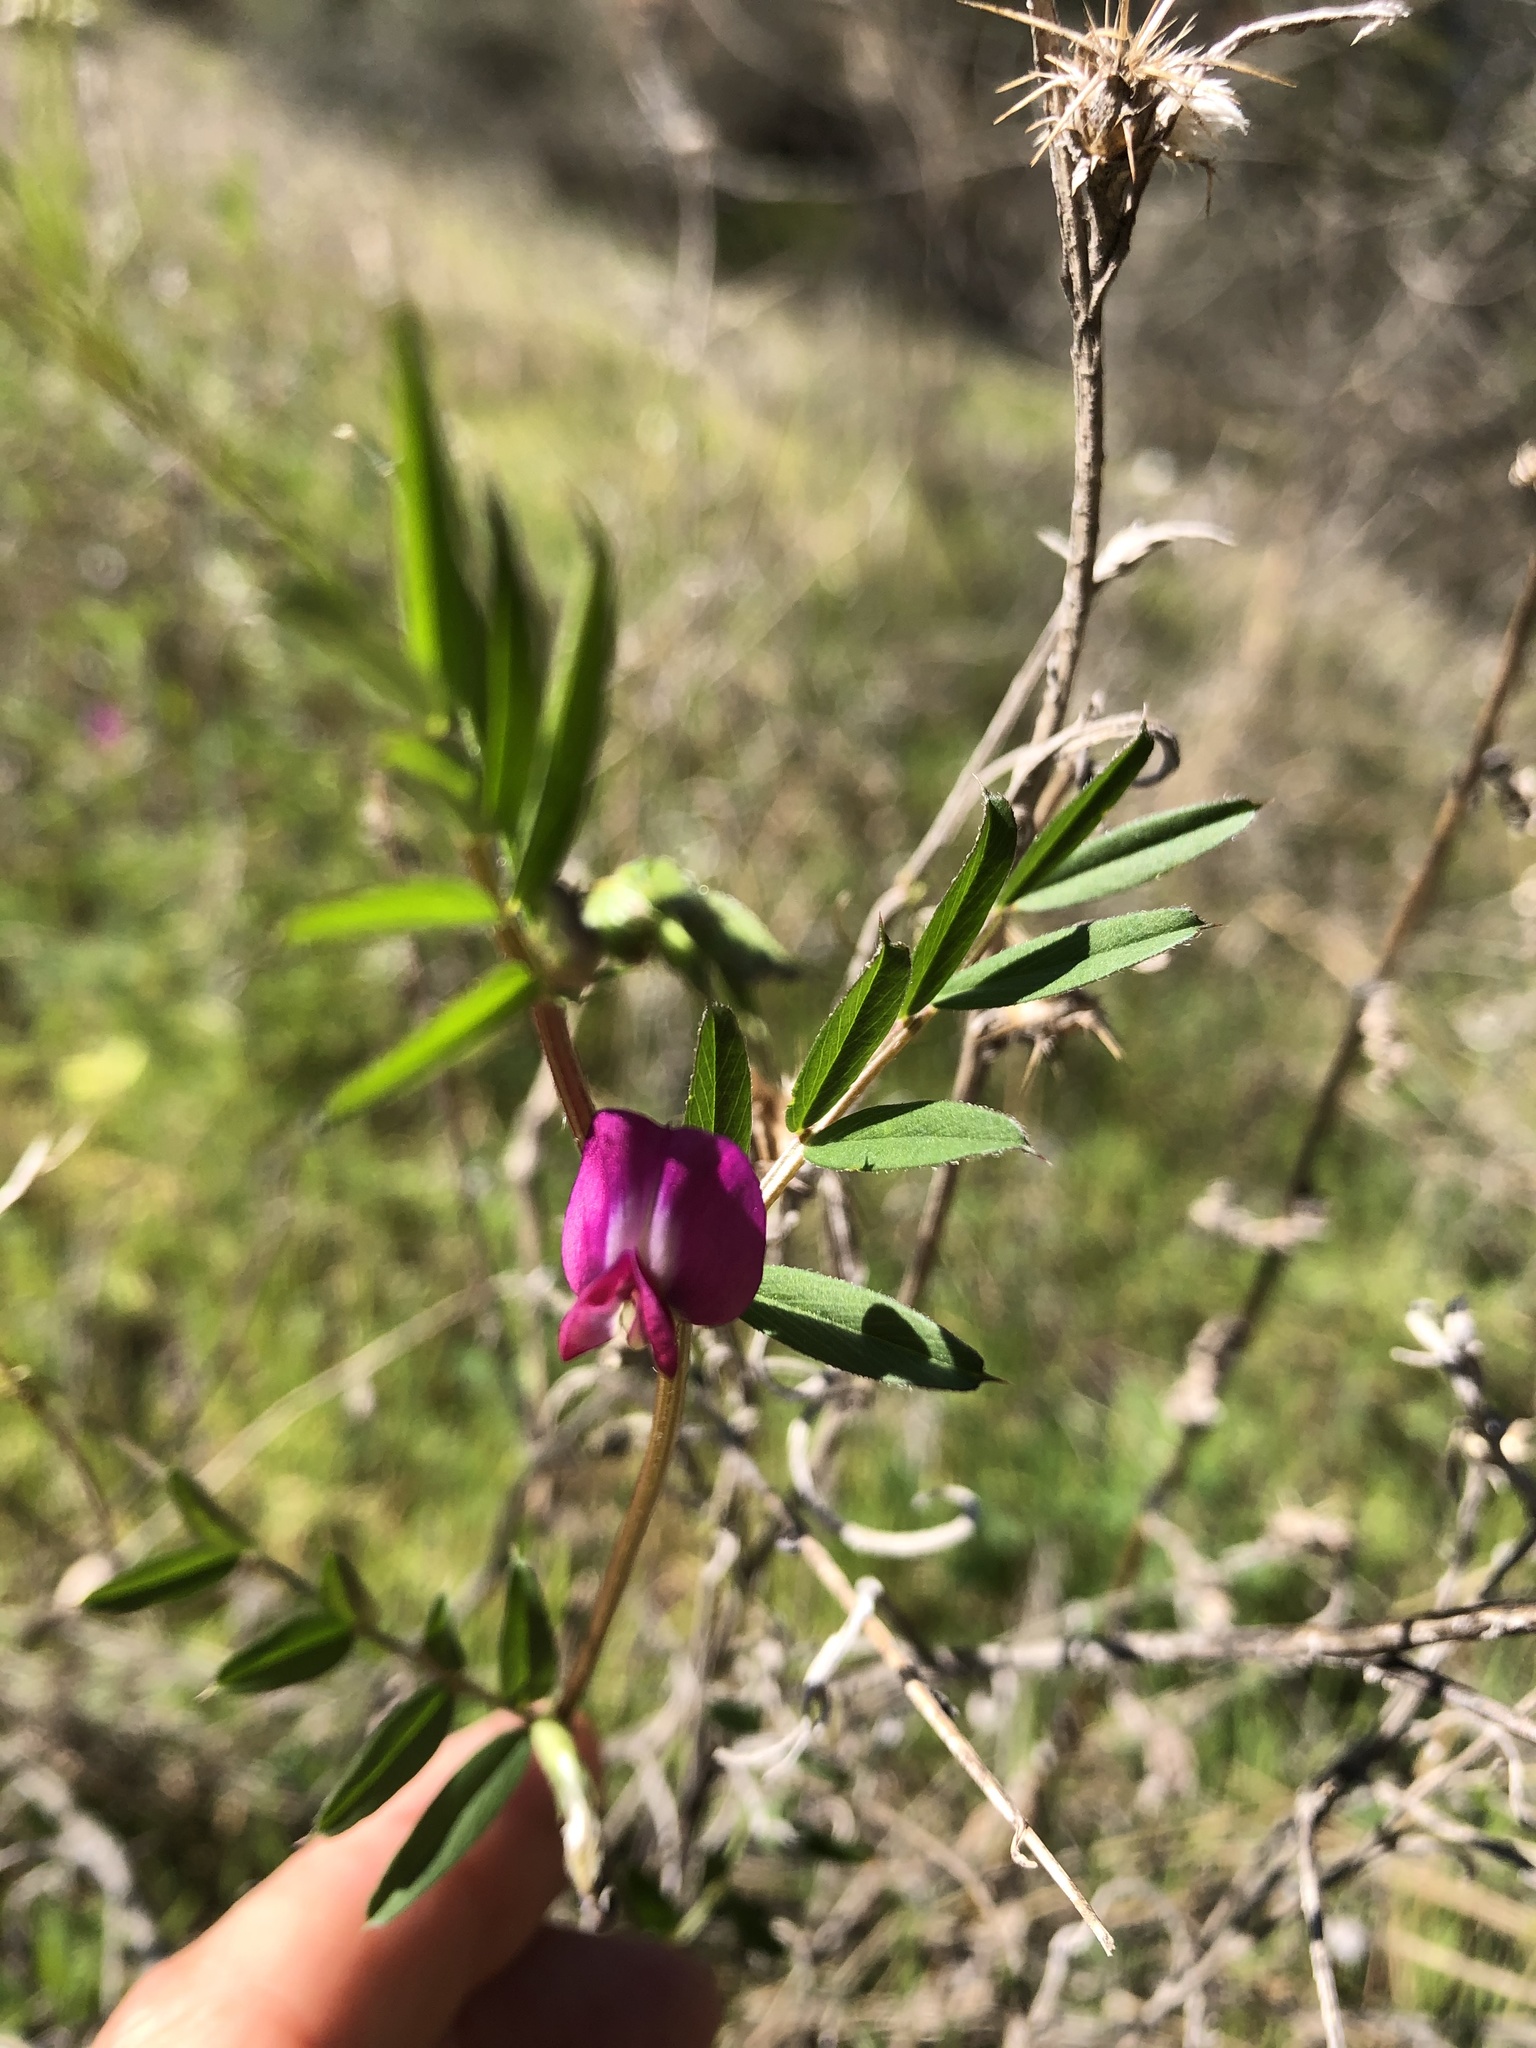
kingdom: Plantae
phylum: Tracheophyta
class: Magnoliopsida
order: Fabales
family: Fabaceae
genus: Vicia
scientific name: Vicia sativa
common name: Garden vetch
